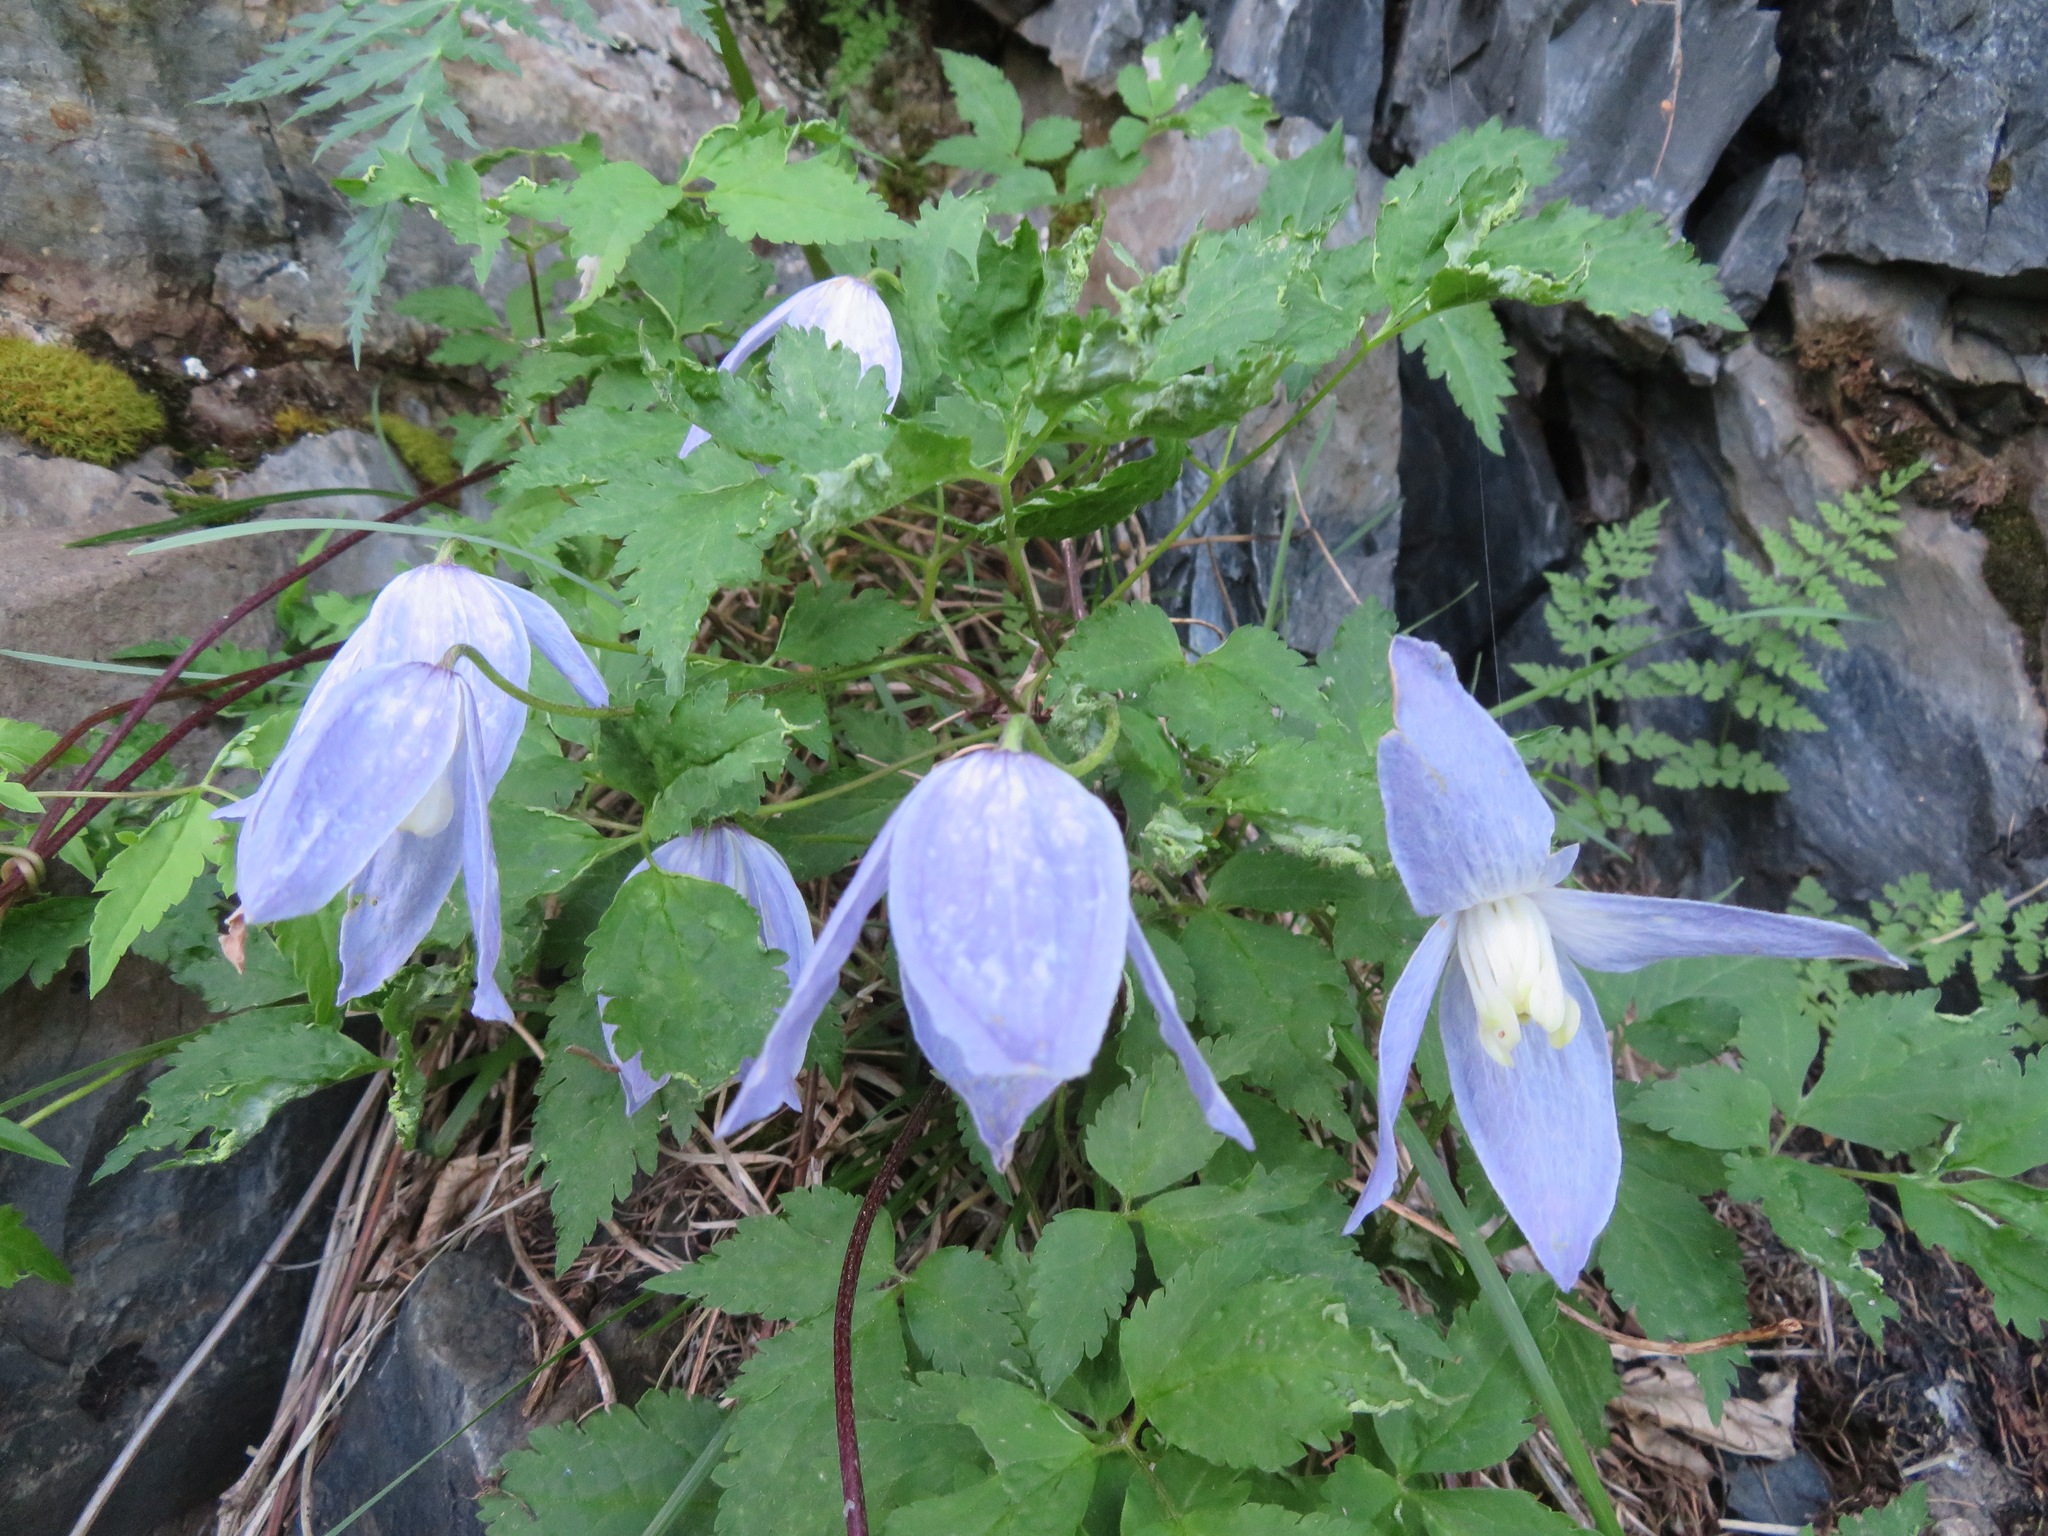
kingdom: Plantae
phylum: Tracheophyta
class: Magnoliopsida
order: Ranunculales
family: Ranunculaceae
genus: Clematis
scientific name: Clematis alpina
